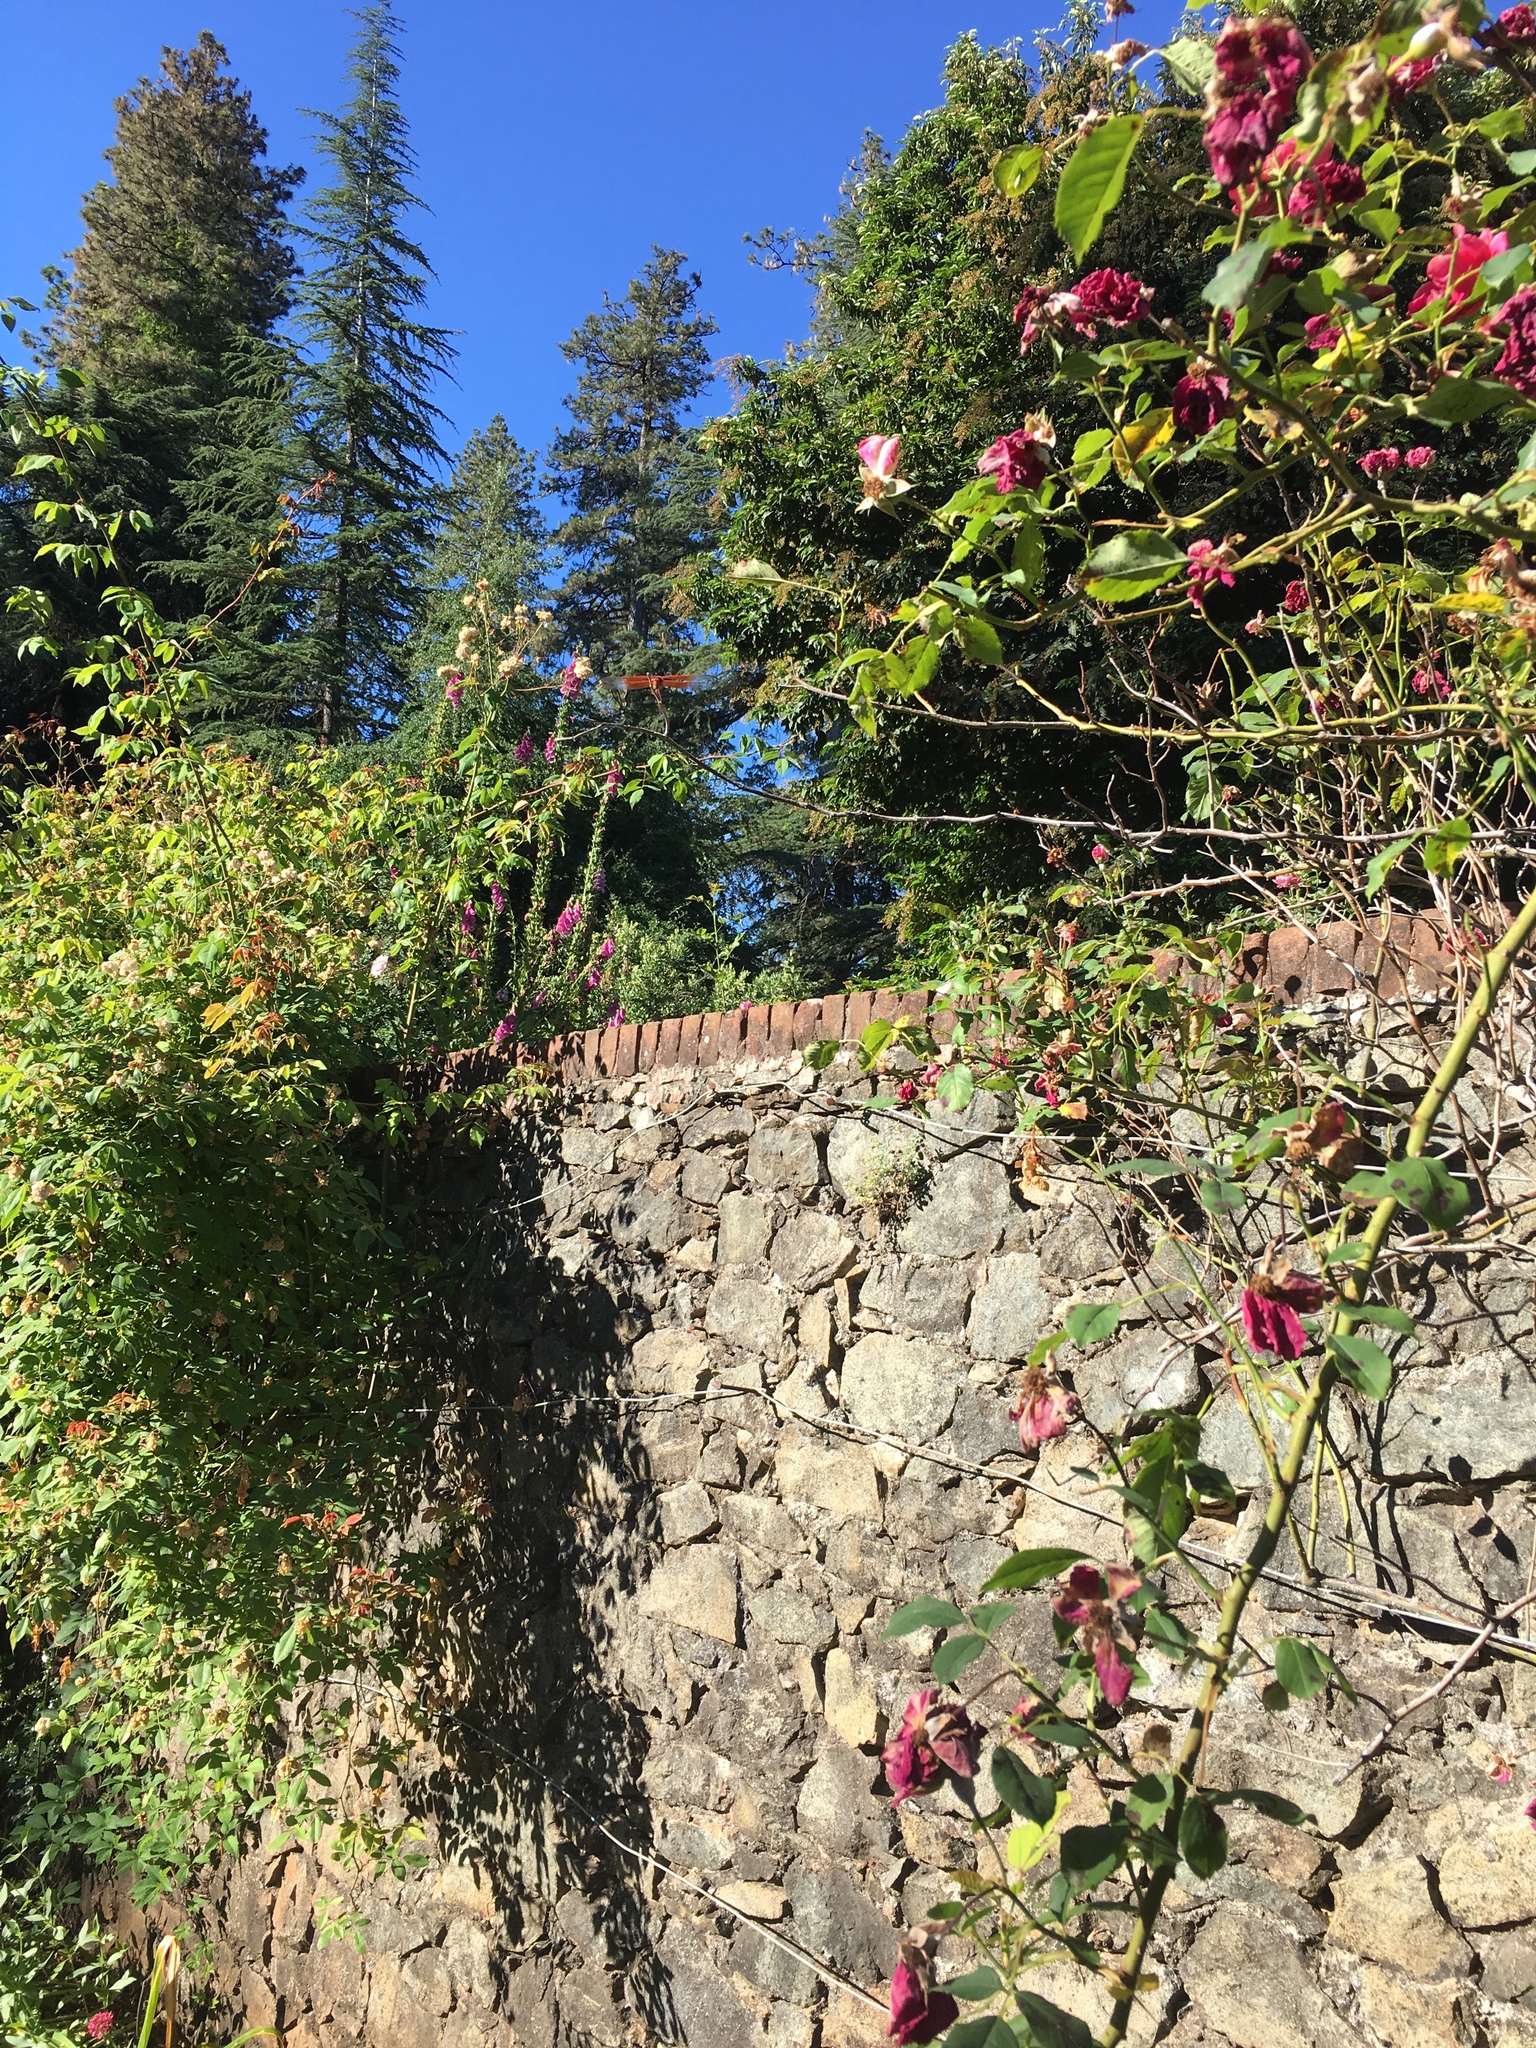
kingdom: Animalia
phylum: Arthropoda
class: Insecta
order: Odonata
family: Libellulidae
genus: Libellula
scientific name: Libellula saturata
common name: Flame skimmer
